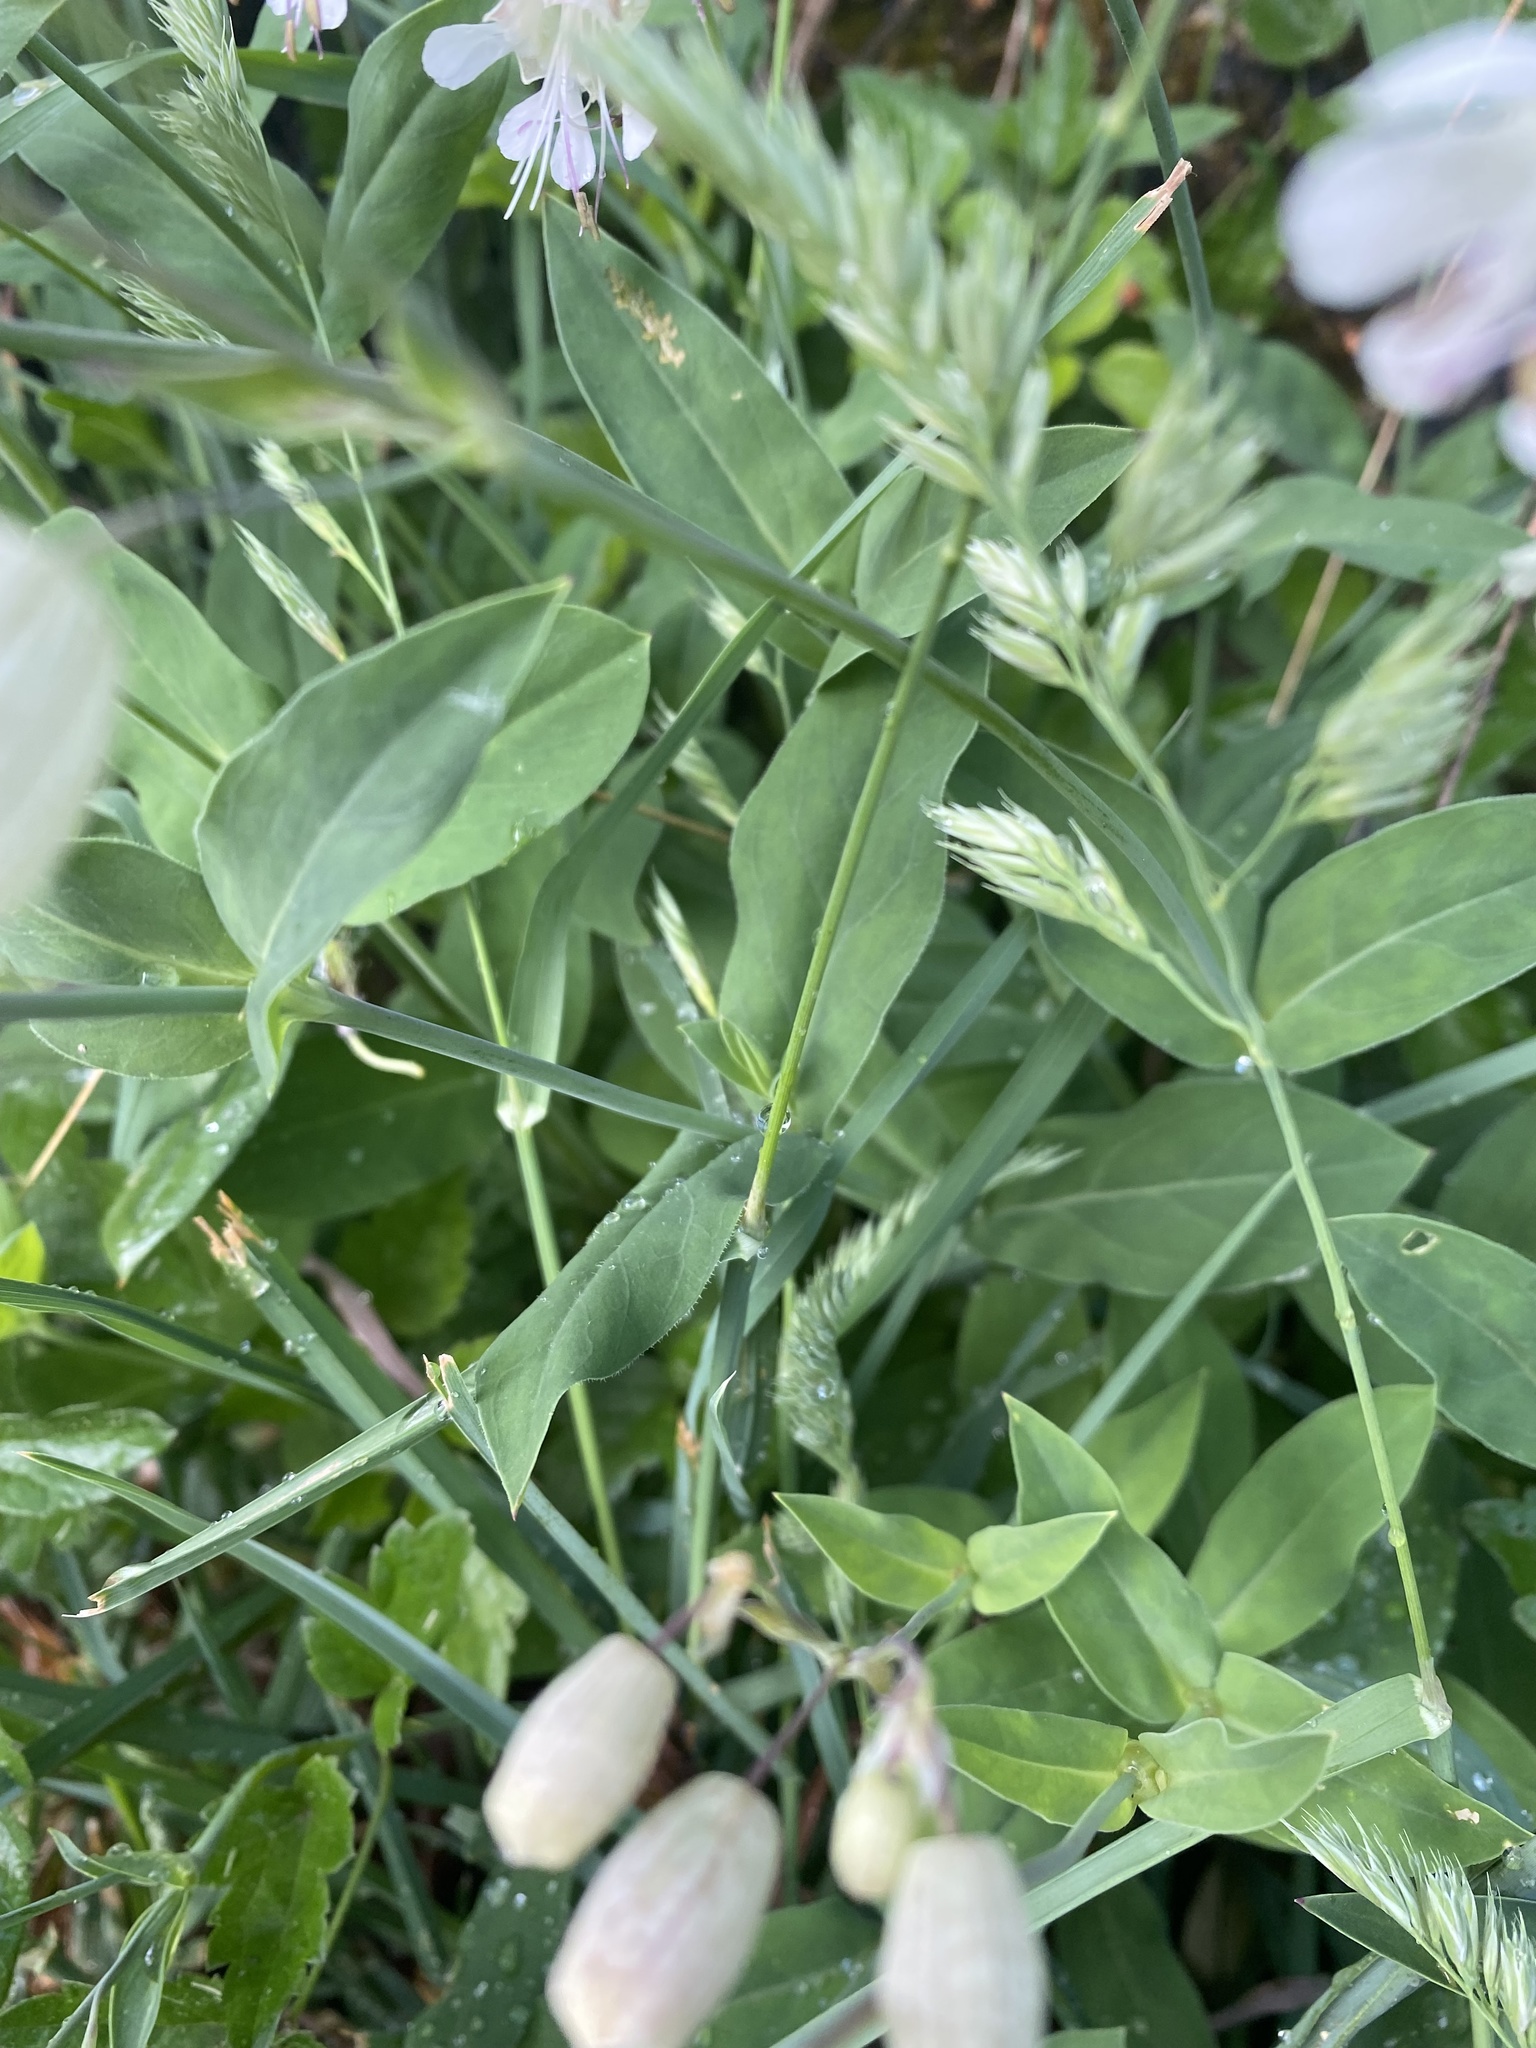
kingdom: Plantae
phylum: Tracheophyta
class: Magnoliopsida
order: Caryophyllales
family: Caryophyllaceae
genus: Silene
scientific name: Silene vulgaris
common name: Bladder campion
